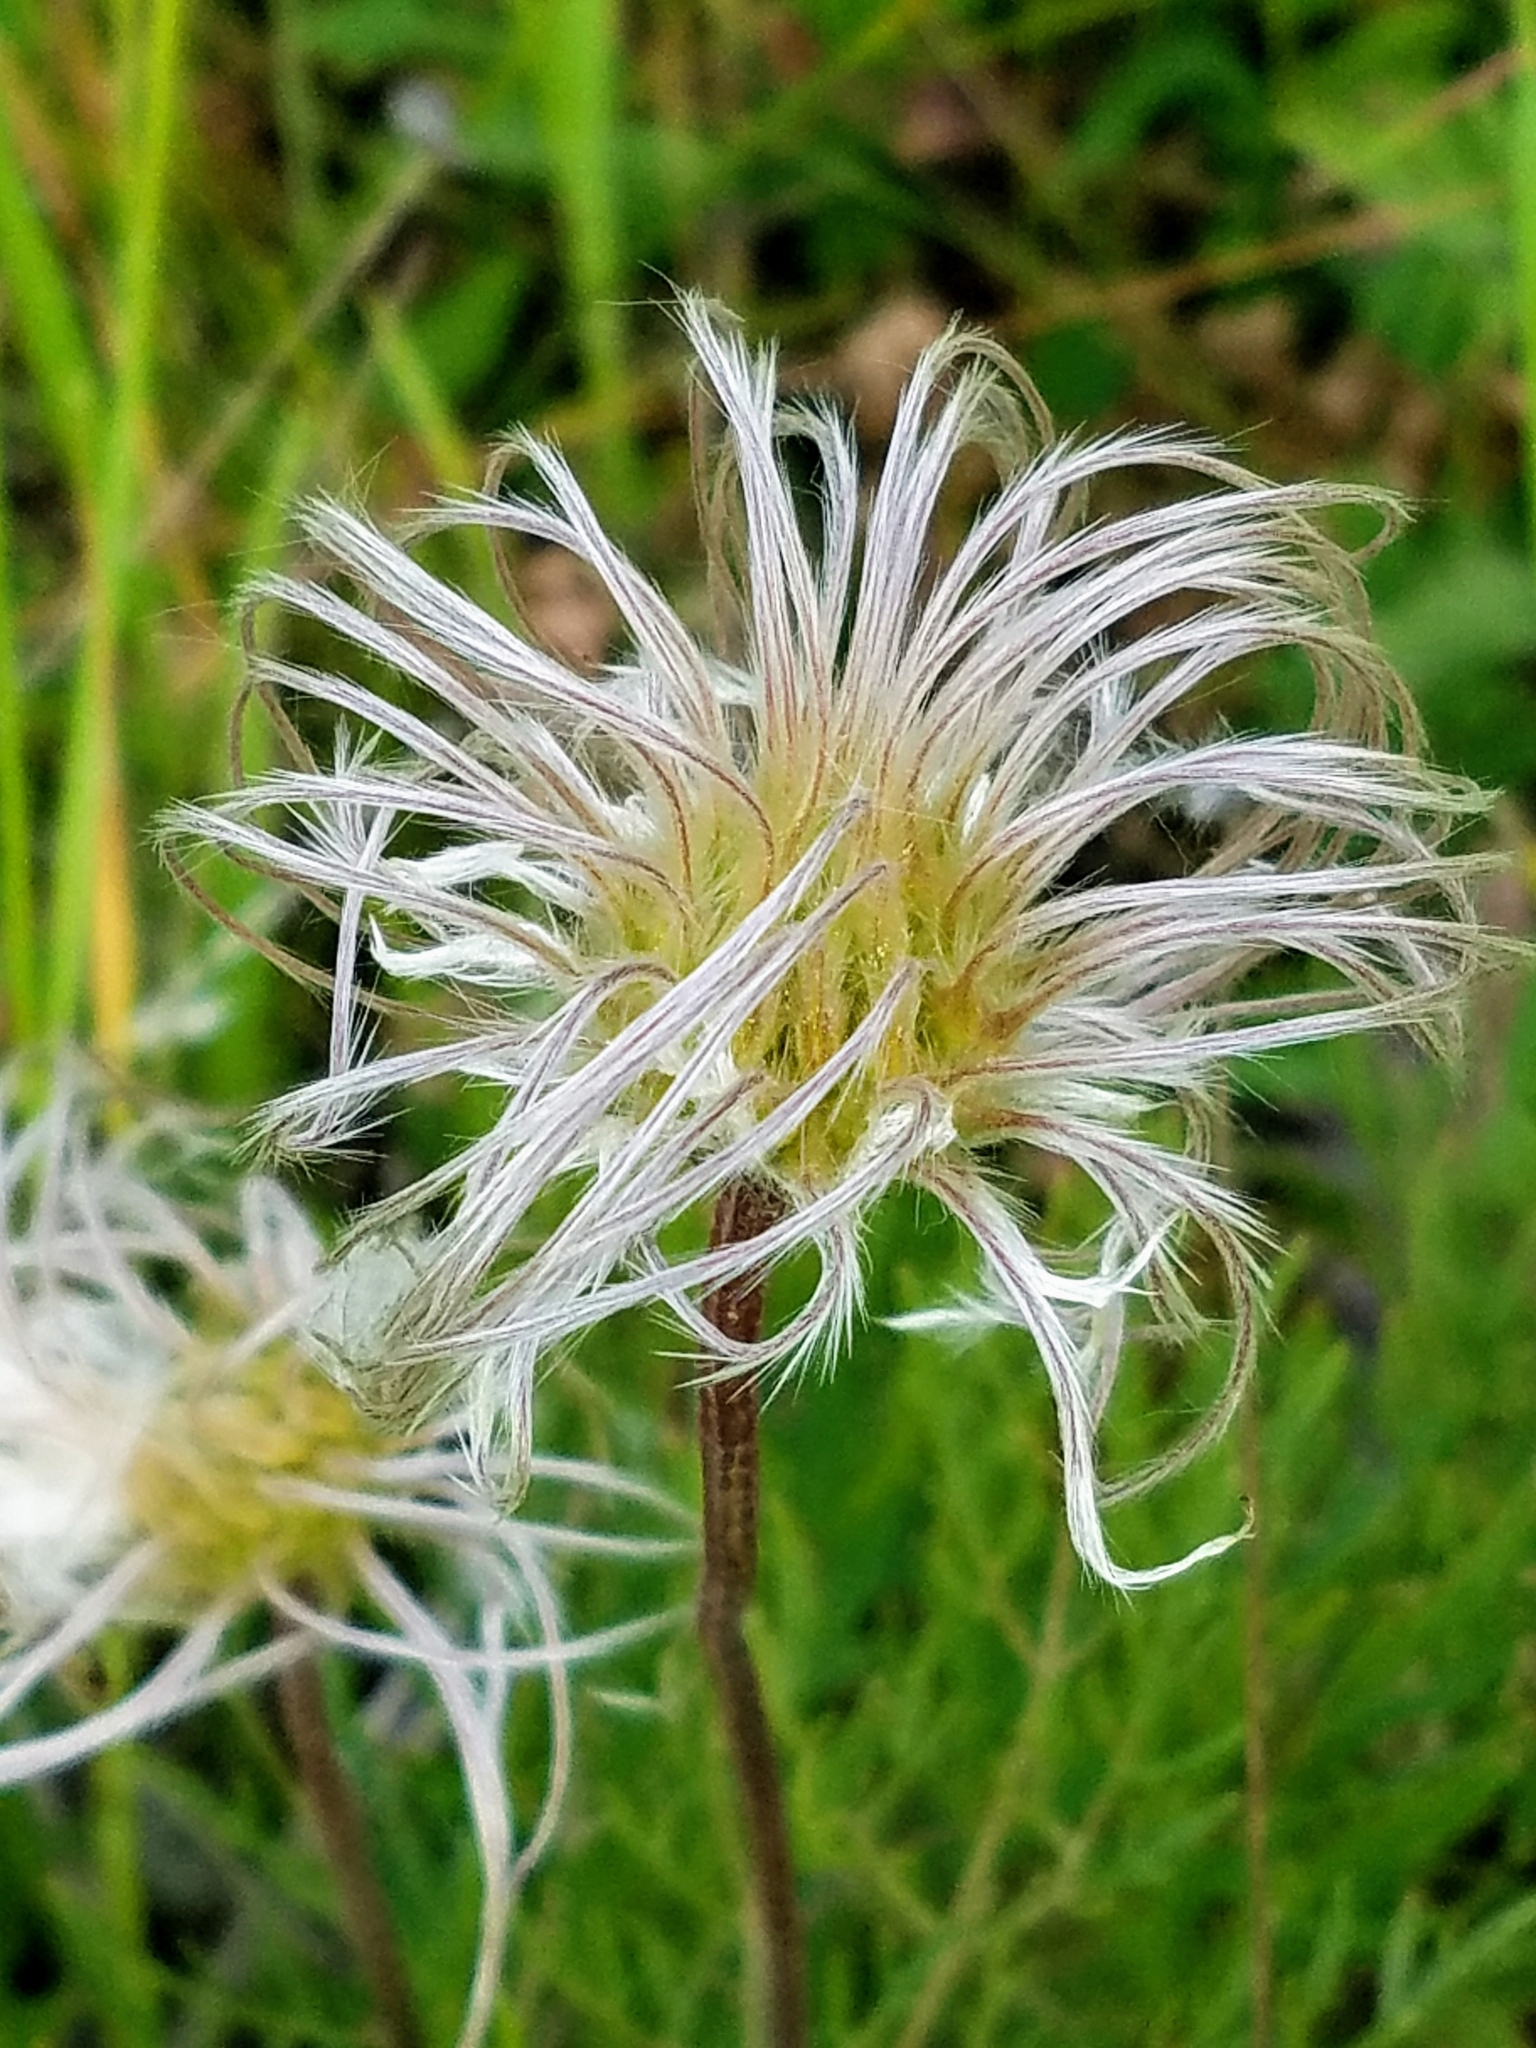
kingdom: Plantae
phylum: Tracheophyta
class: Magnoliopsida
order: Ranunculales
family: Ranunculaceae
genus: Clematis
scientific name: Clematis hirsutissima
